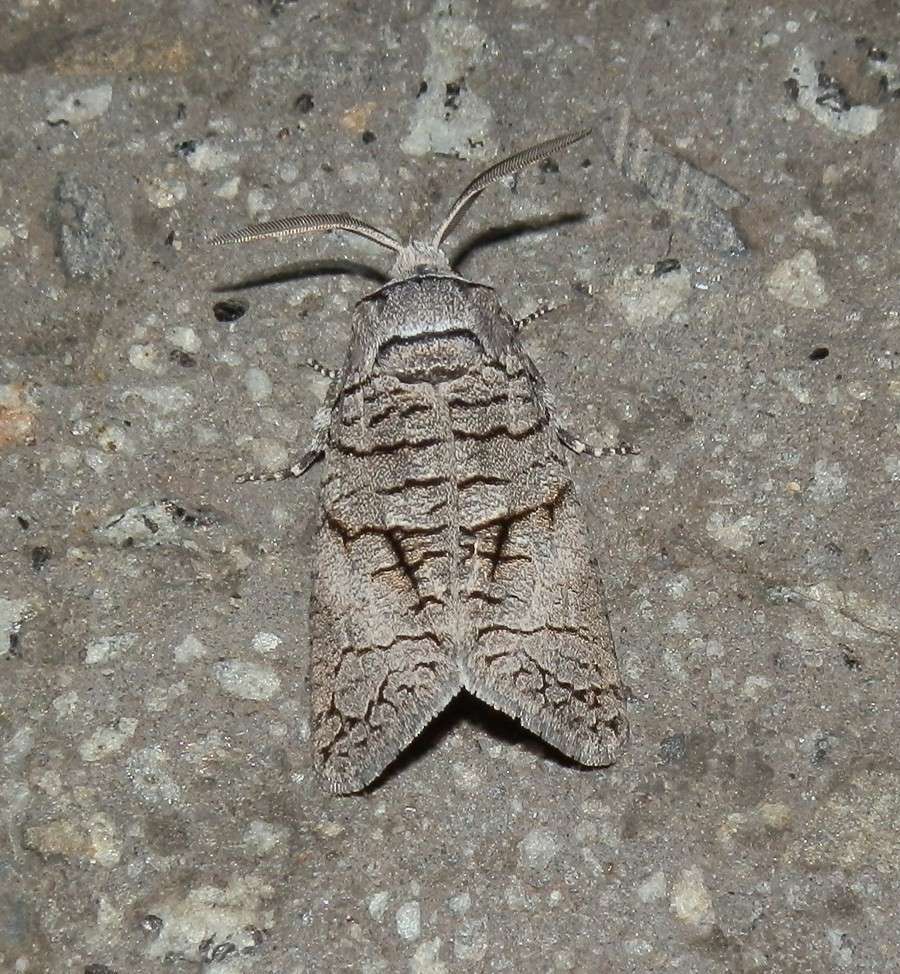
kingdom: Animalia
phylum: Arthropoda
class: Insecta
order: Lepidoptera
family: Cossidae
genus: Culama
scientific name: Culama anthracica
